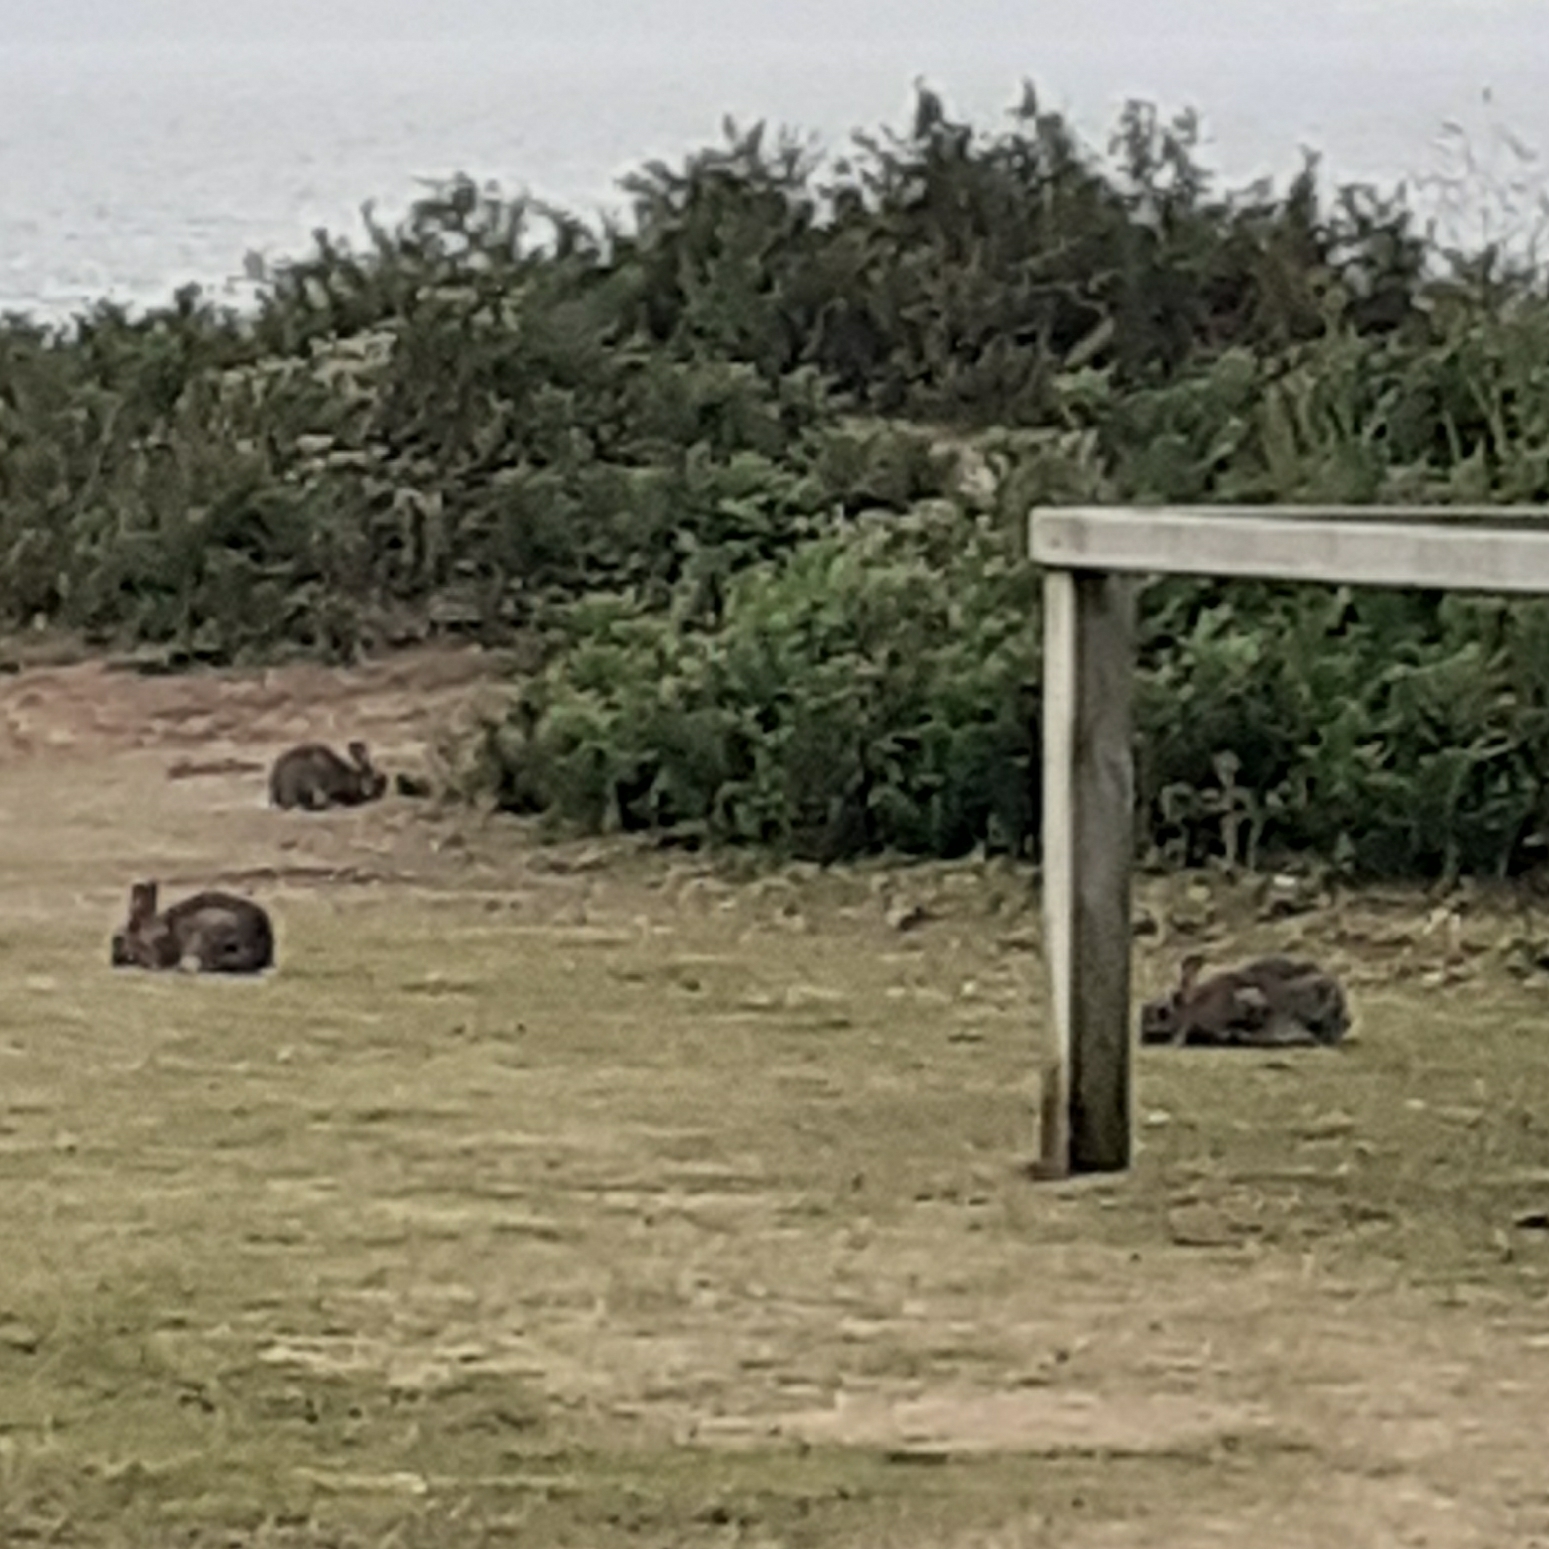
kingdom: Animalia
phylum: Chordata
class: Mammalia
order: Lagomorpha
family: Leporidae
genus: Oryctolagus
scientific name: Oryctolagus cuniculus
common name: European rabbit
